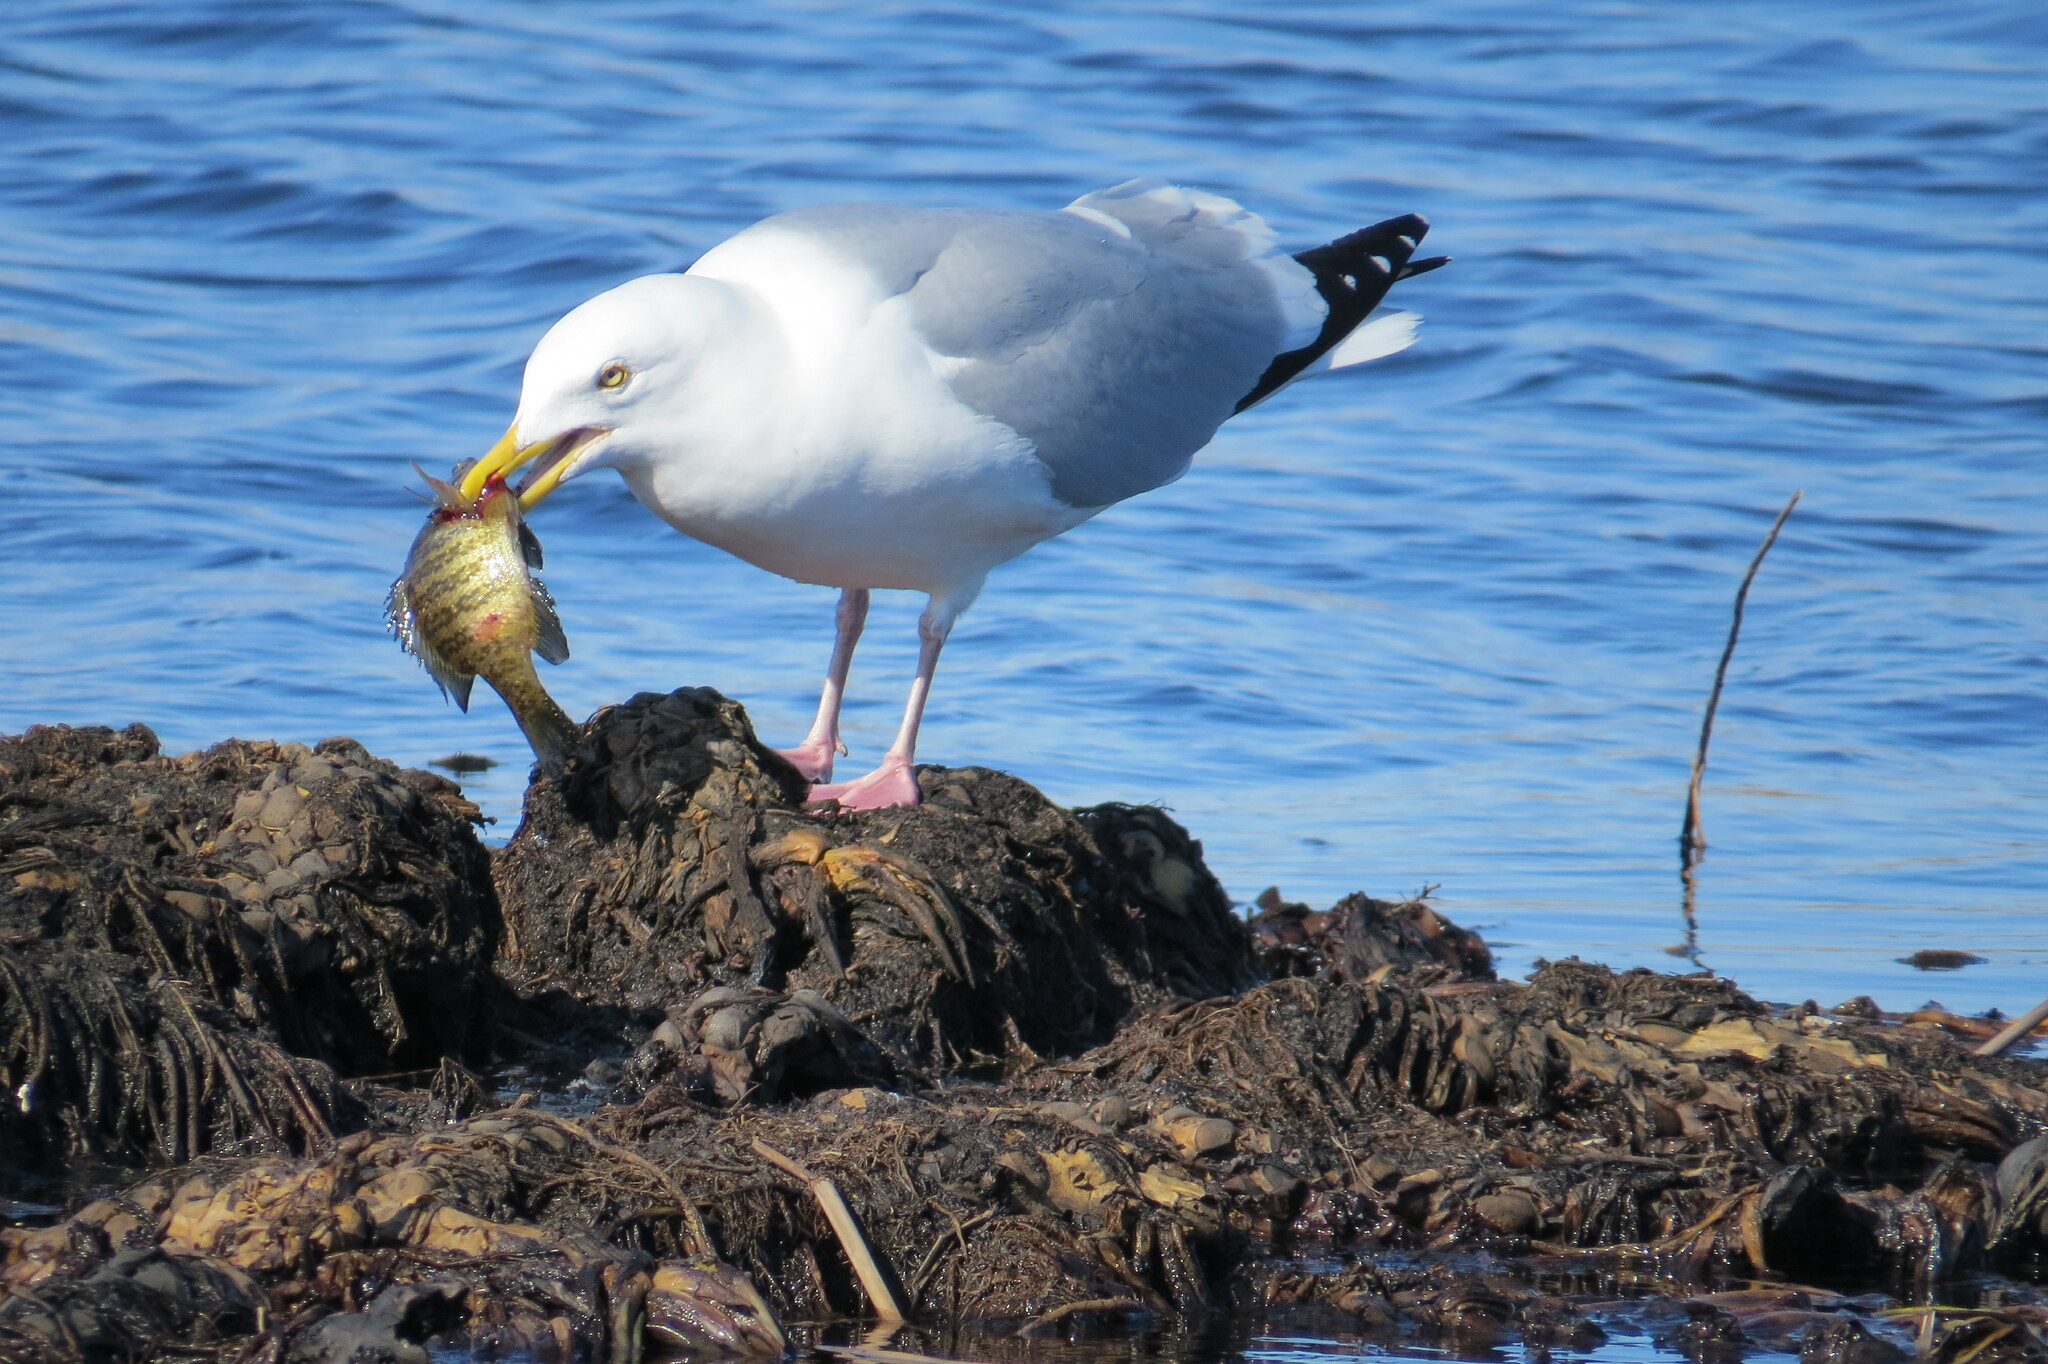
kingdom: Animalia
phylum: Chordata
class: Aves
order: Charadriiformes
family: Laridae
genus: Larus
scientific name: Larus argentatus
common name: Herring gull
